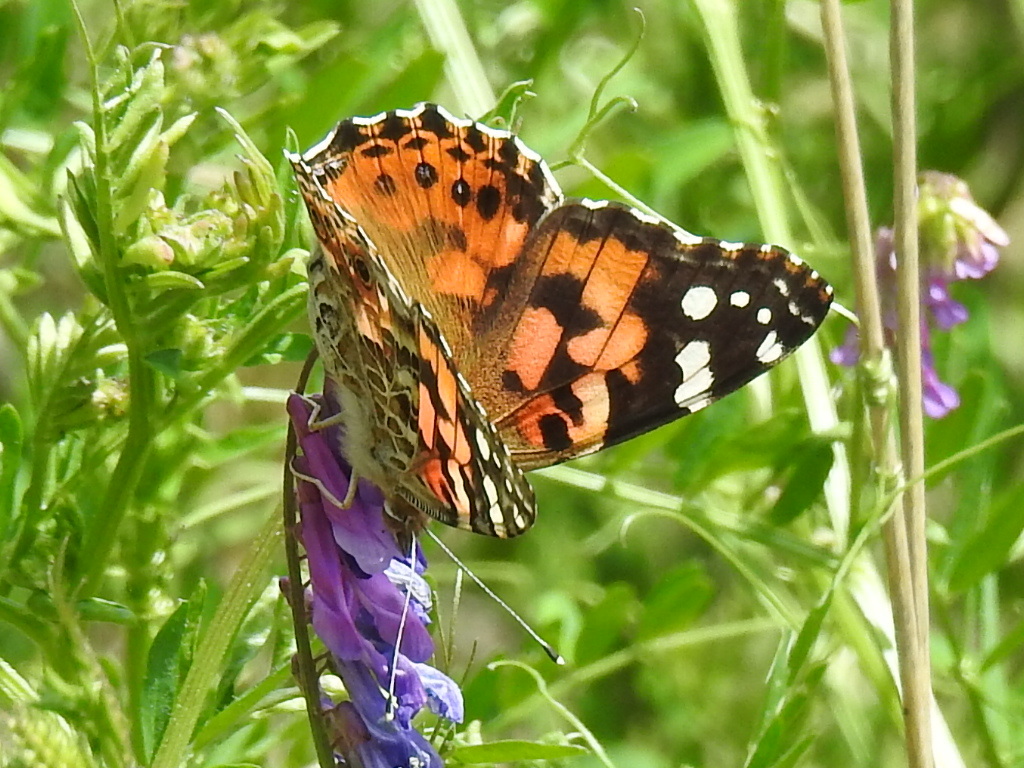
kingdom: Animalia
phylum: Arthropoda
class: Insecta
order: Lepidoptera
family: Nymphalidae
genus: Vanessa
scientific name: Vanessa cardui
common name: Painted lady
